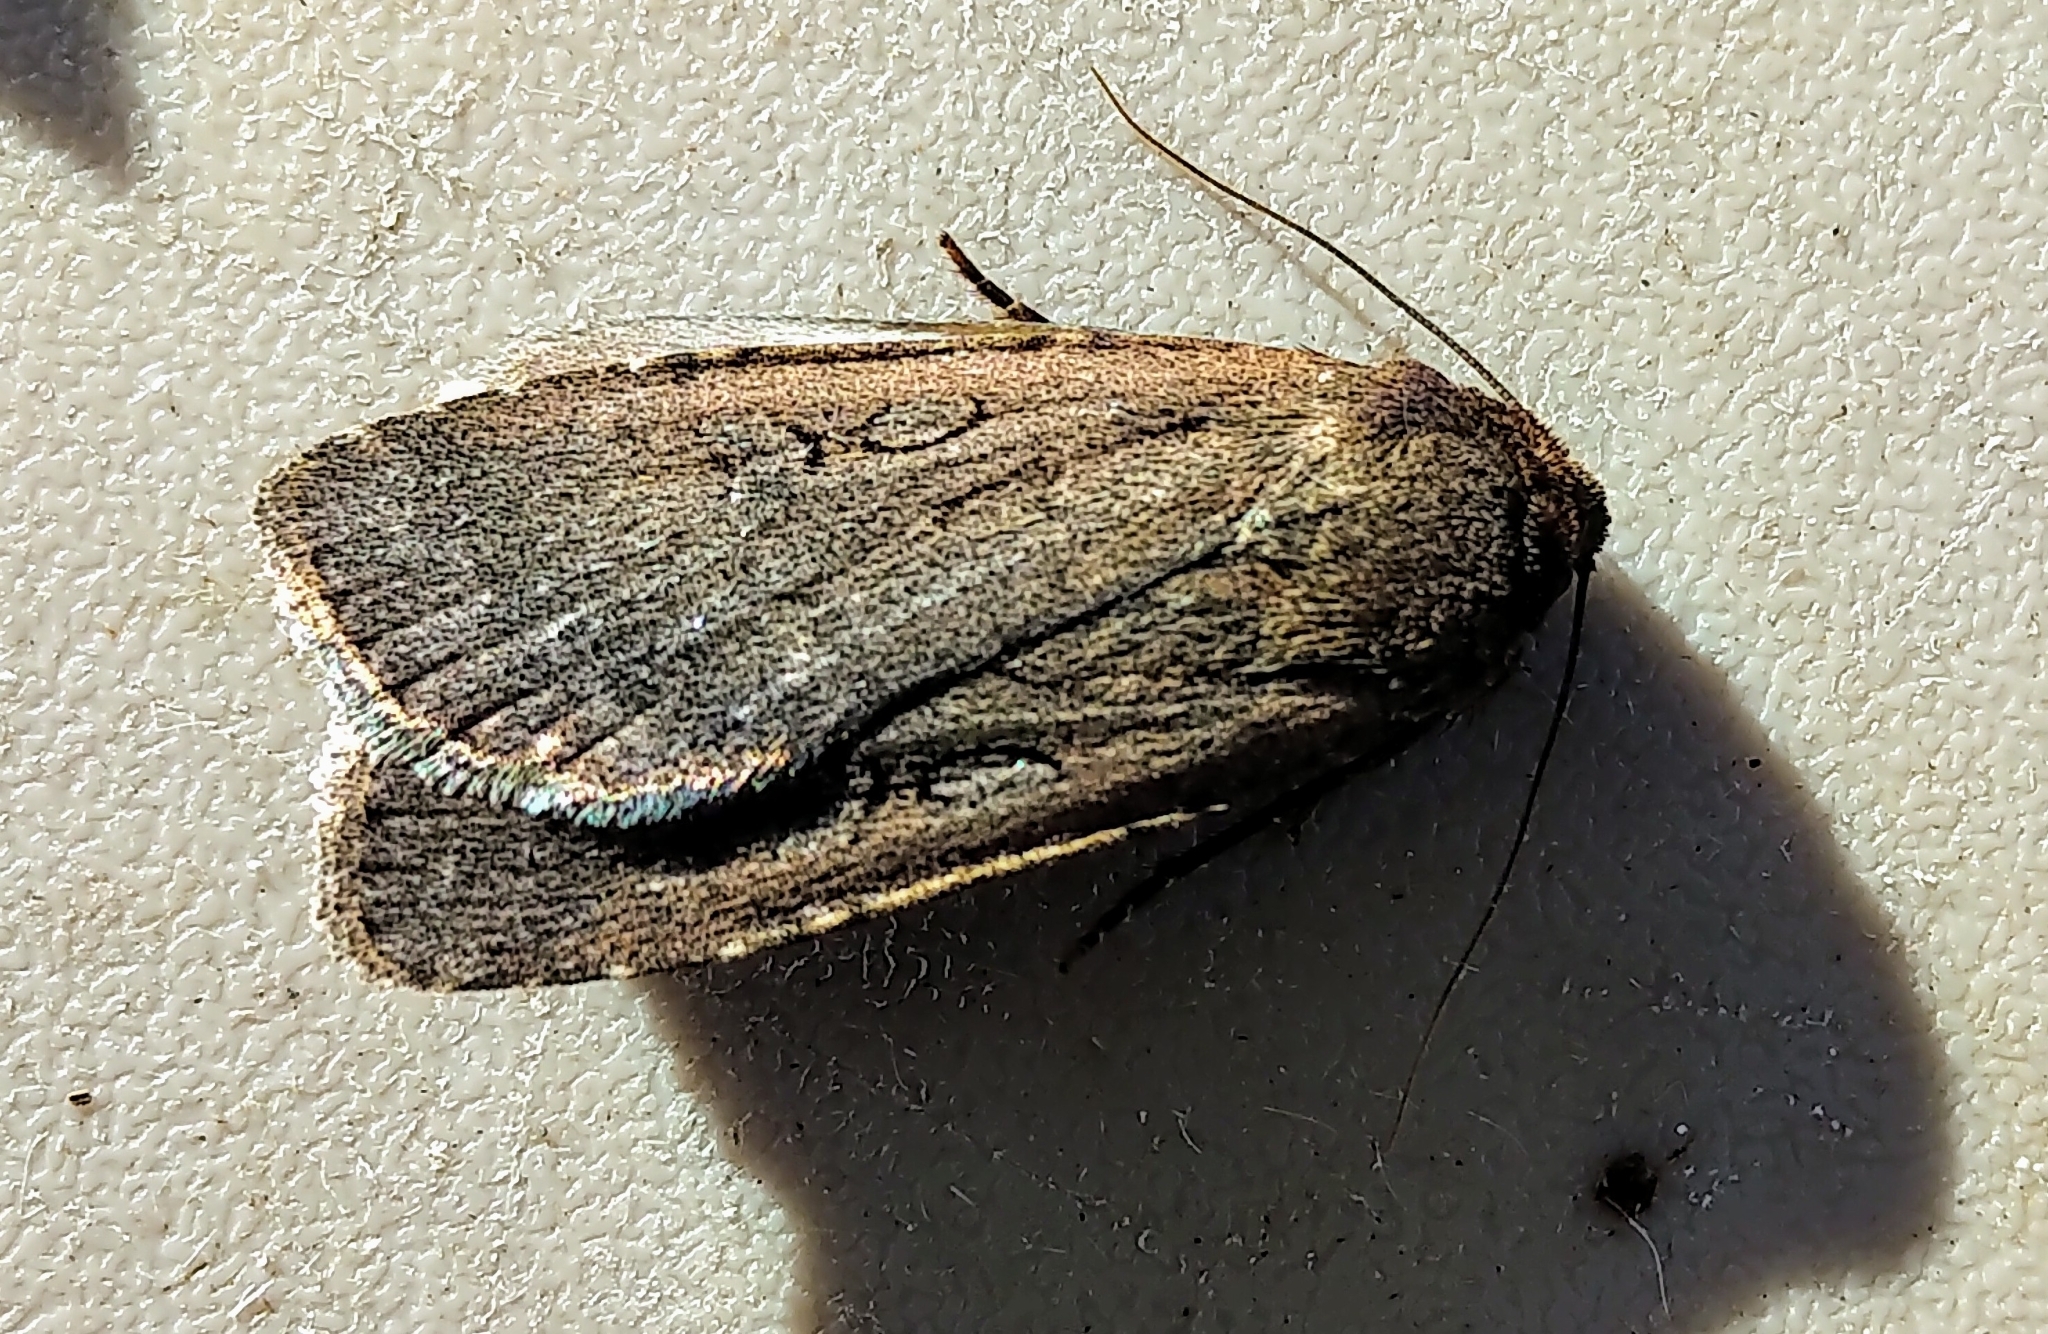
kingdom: Animalia
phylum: Arthropoda
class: Insecta
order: Lepidoptera
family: Noctuidae
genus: Spaelotis
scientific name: Spaelotis clandestina
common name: Clandestine dart
